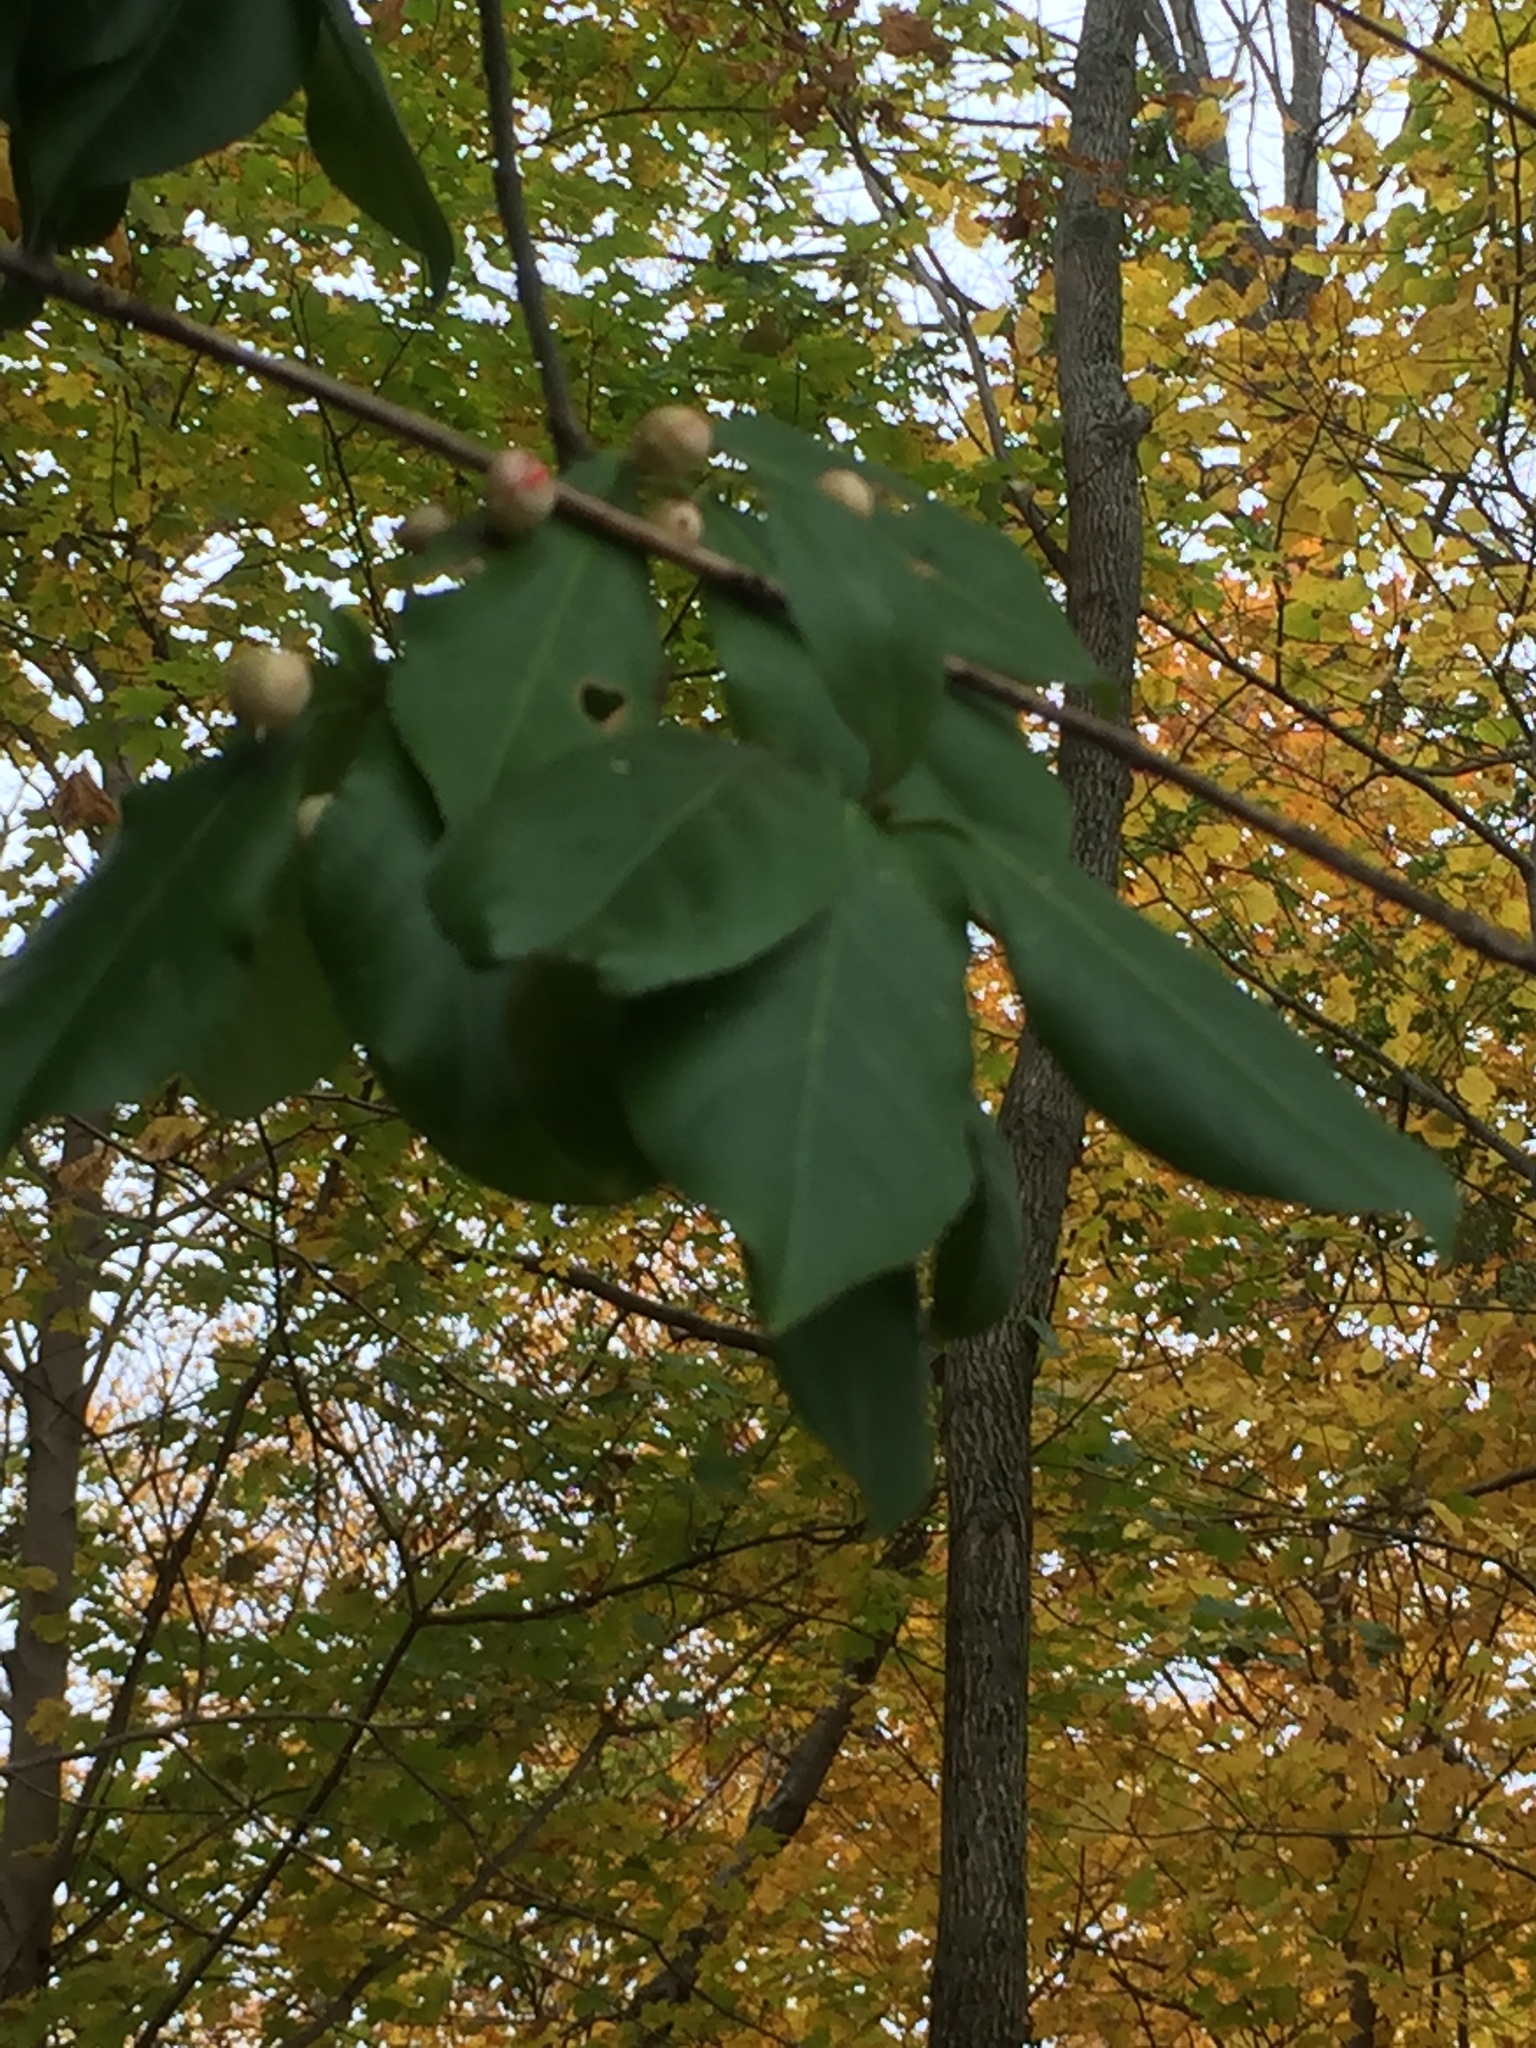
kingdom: Plantae
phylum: Tracheophyta
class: Magnoliopsida
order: Celastrales
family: Celastraceae
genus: Euonymus
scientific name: Euonymus fortunei
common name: Climbing euonymus
